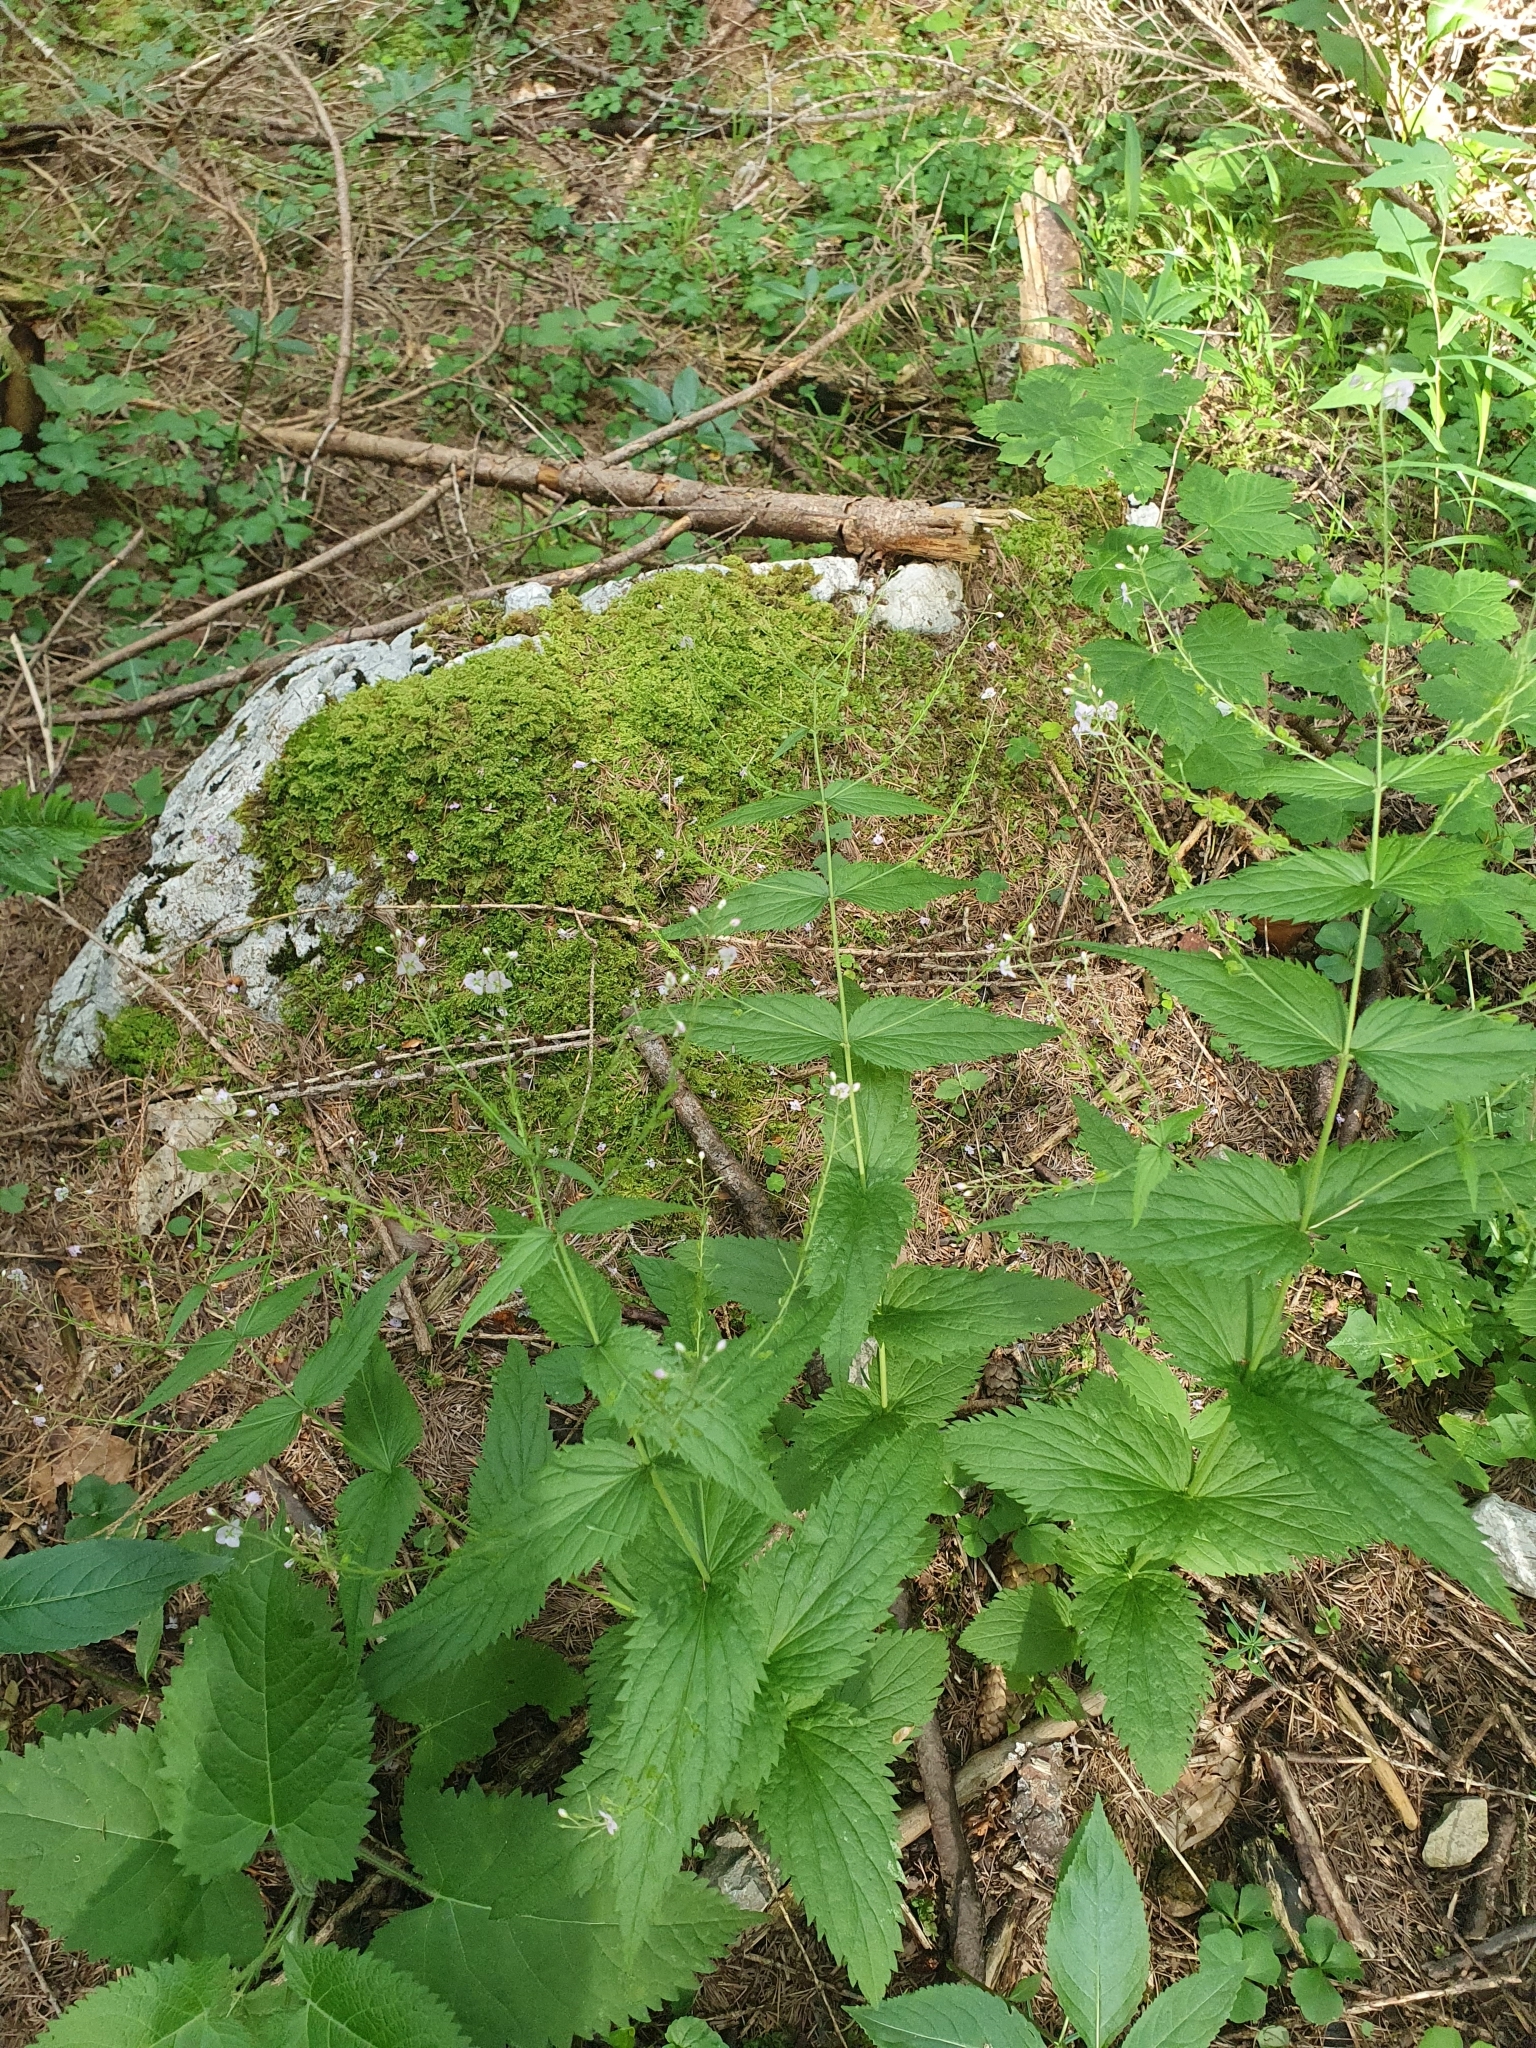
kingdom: Plantae
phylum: Tracheophyta
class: Magnoliopsida
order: Lamiales
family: Plantaginaceae
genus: Veronica
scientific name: Veronica urticifolia
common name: Nettle-leaf speedwell
